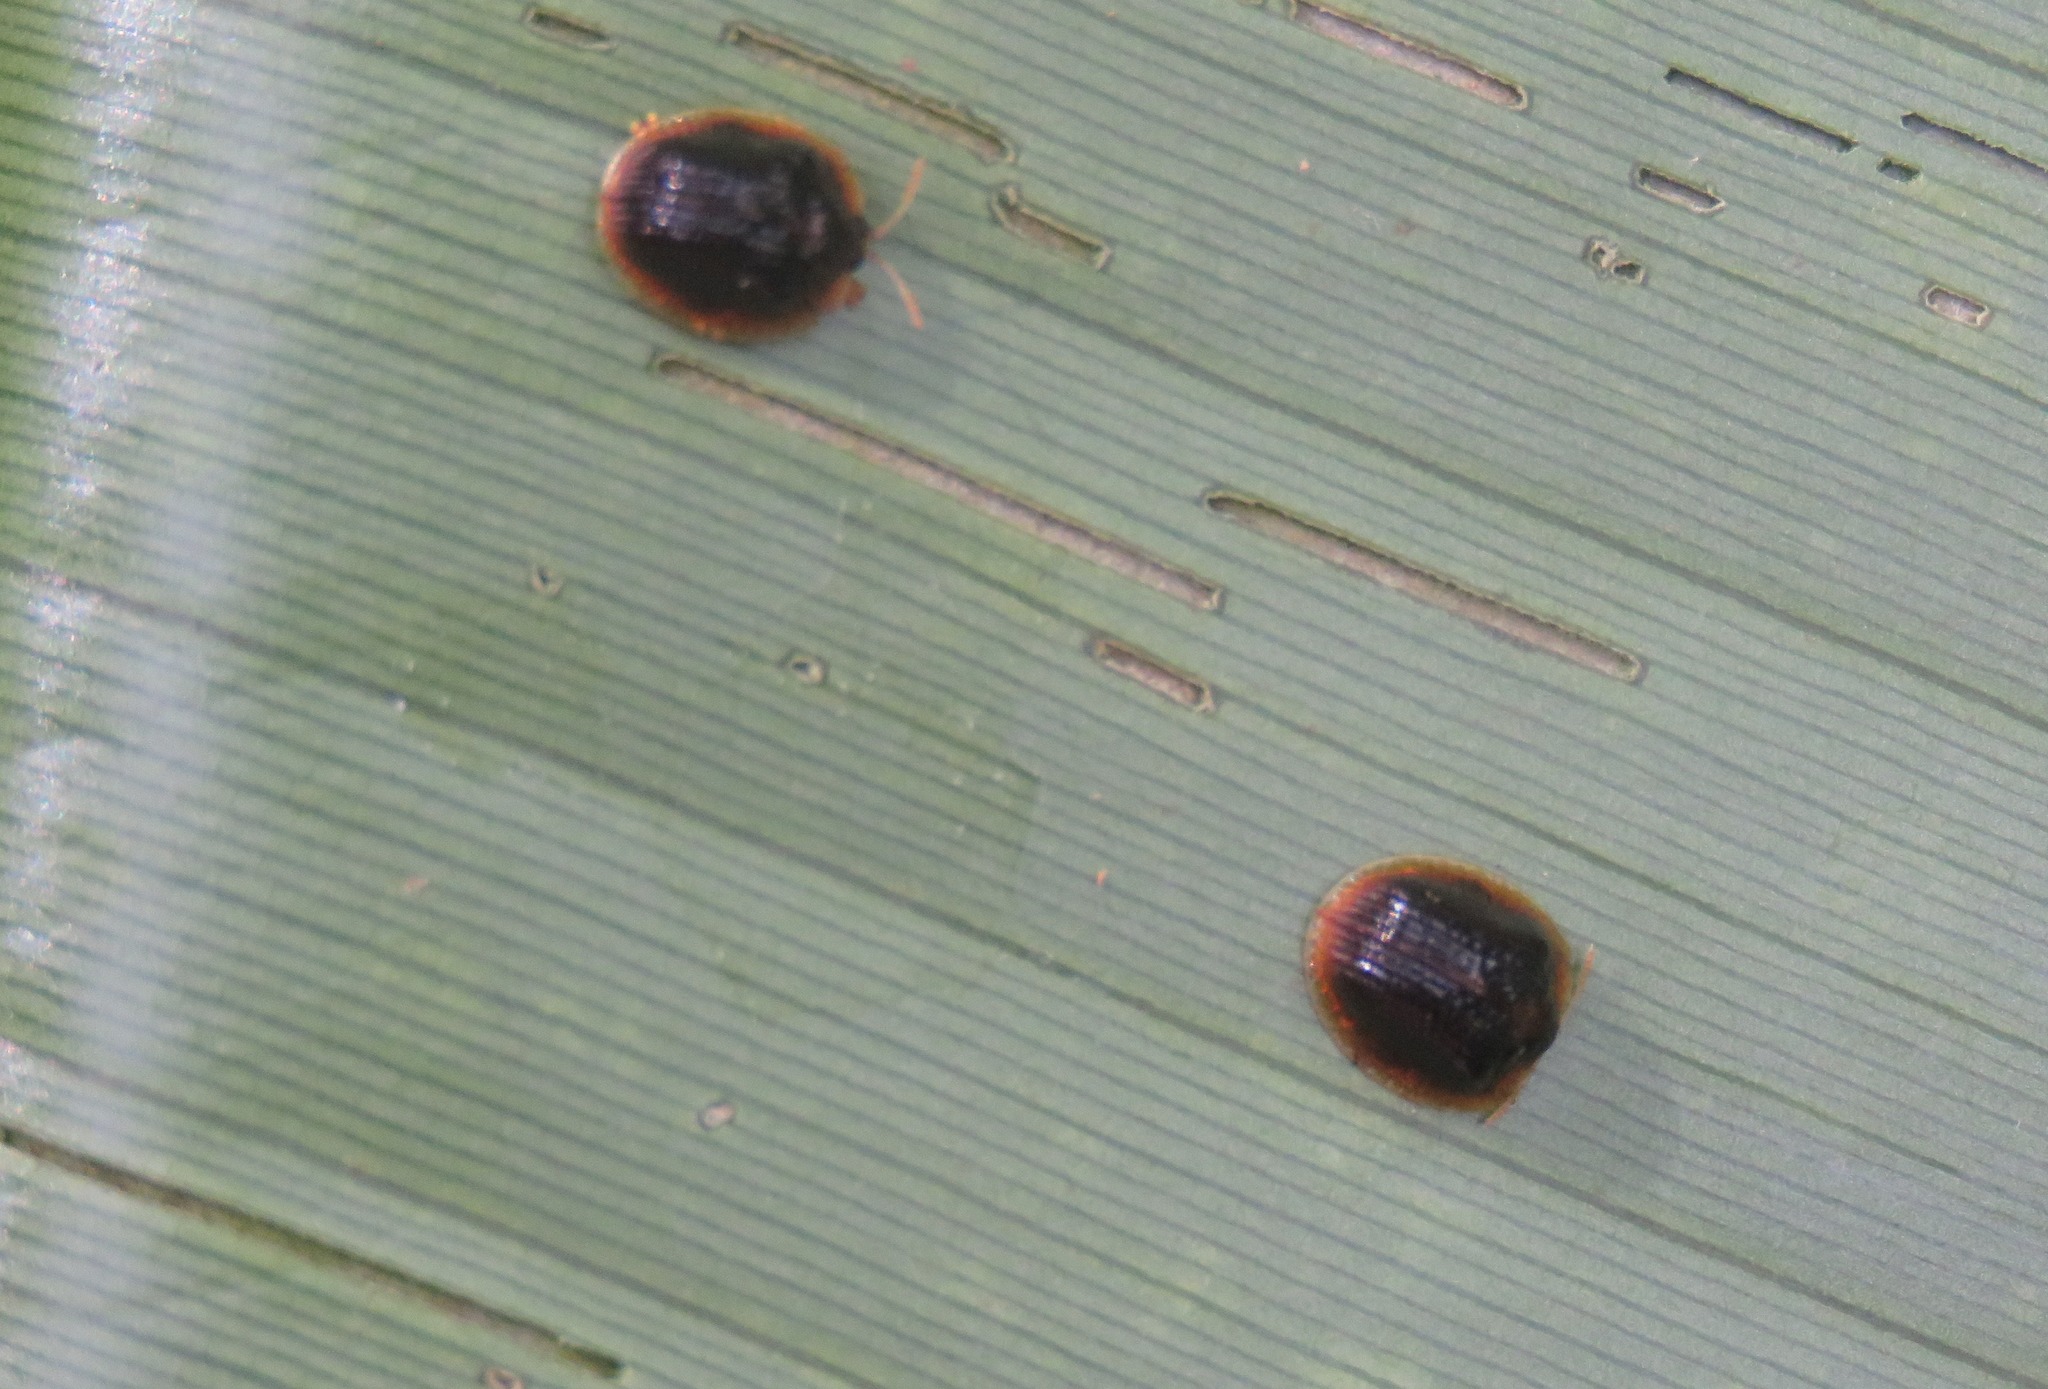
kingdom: Animalia
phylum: Arthropoda
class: Insecta
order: Coleoptera
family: Chrysomelidae
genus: Spaethiella
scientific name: Spaethiella circumdata
